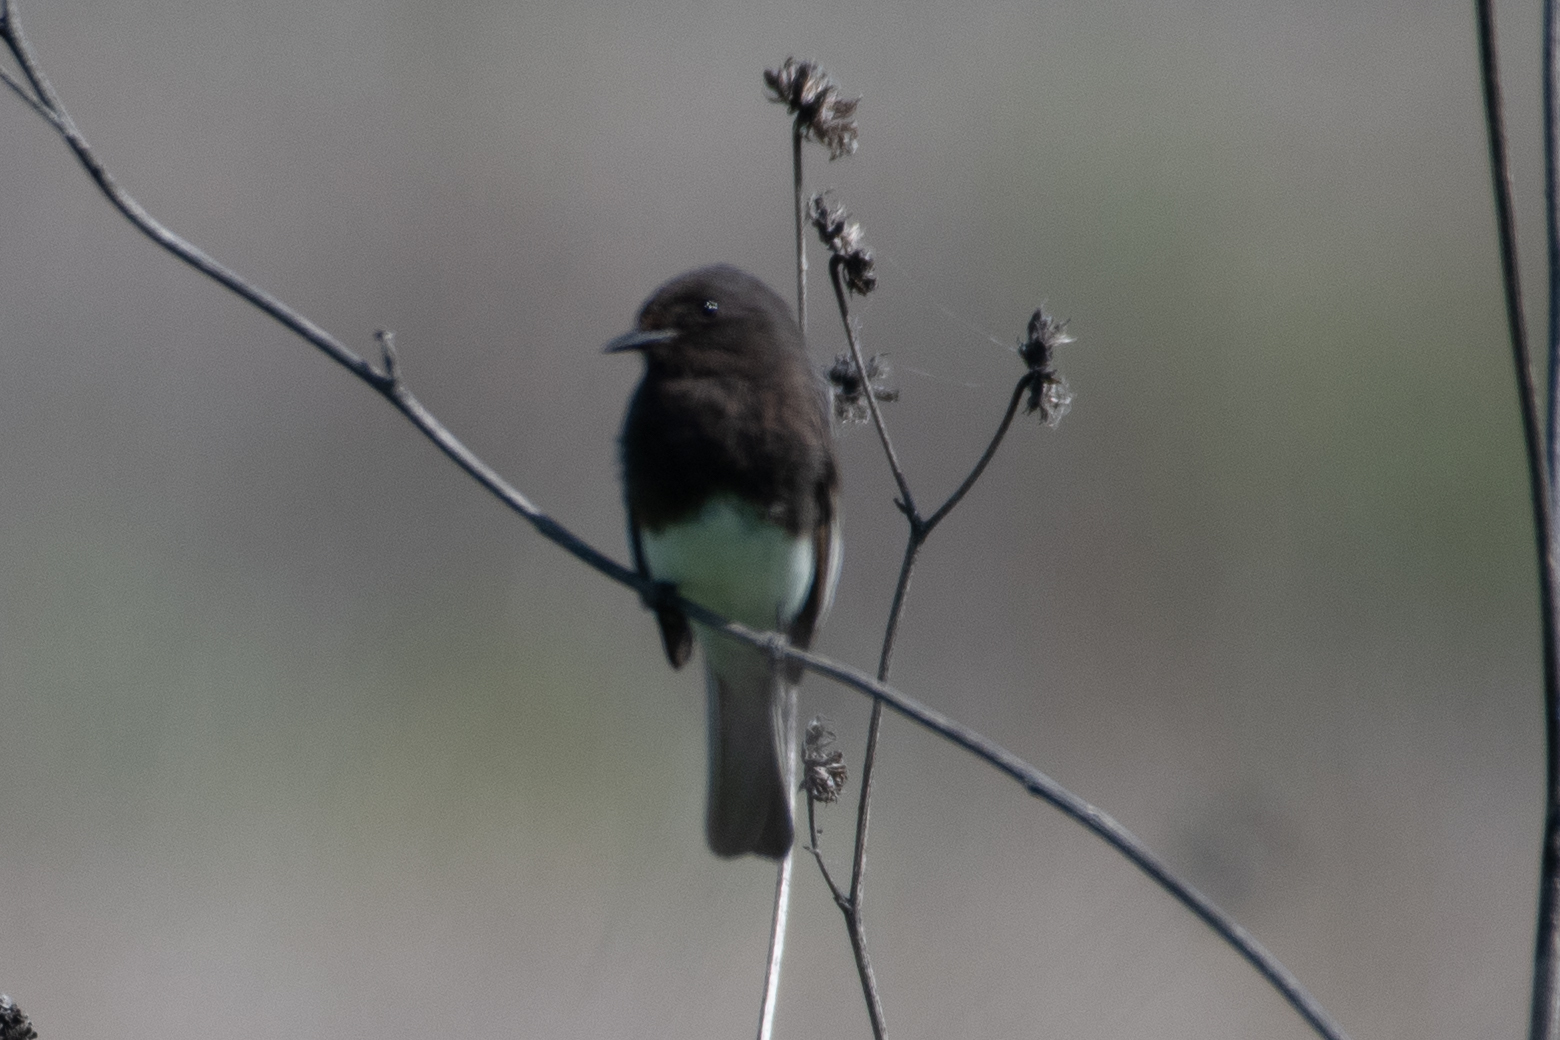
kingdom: Animalia
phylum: Chordata
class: Aves
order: Passeriformes
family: Tyrannidae
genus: Sayornis
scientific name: Sayornis nigricans
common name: Black phoebe
